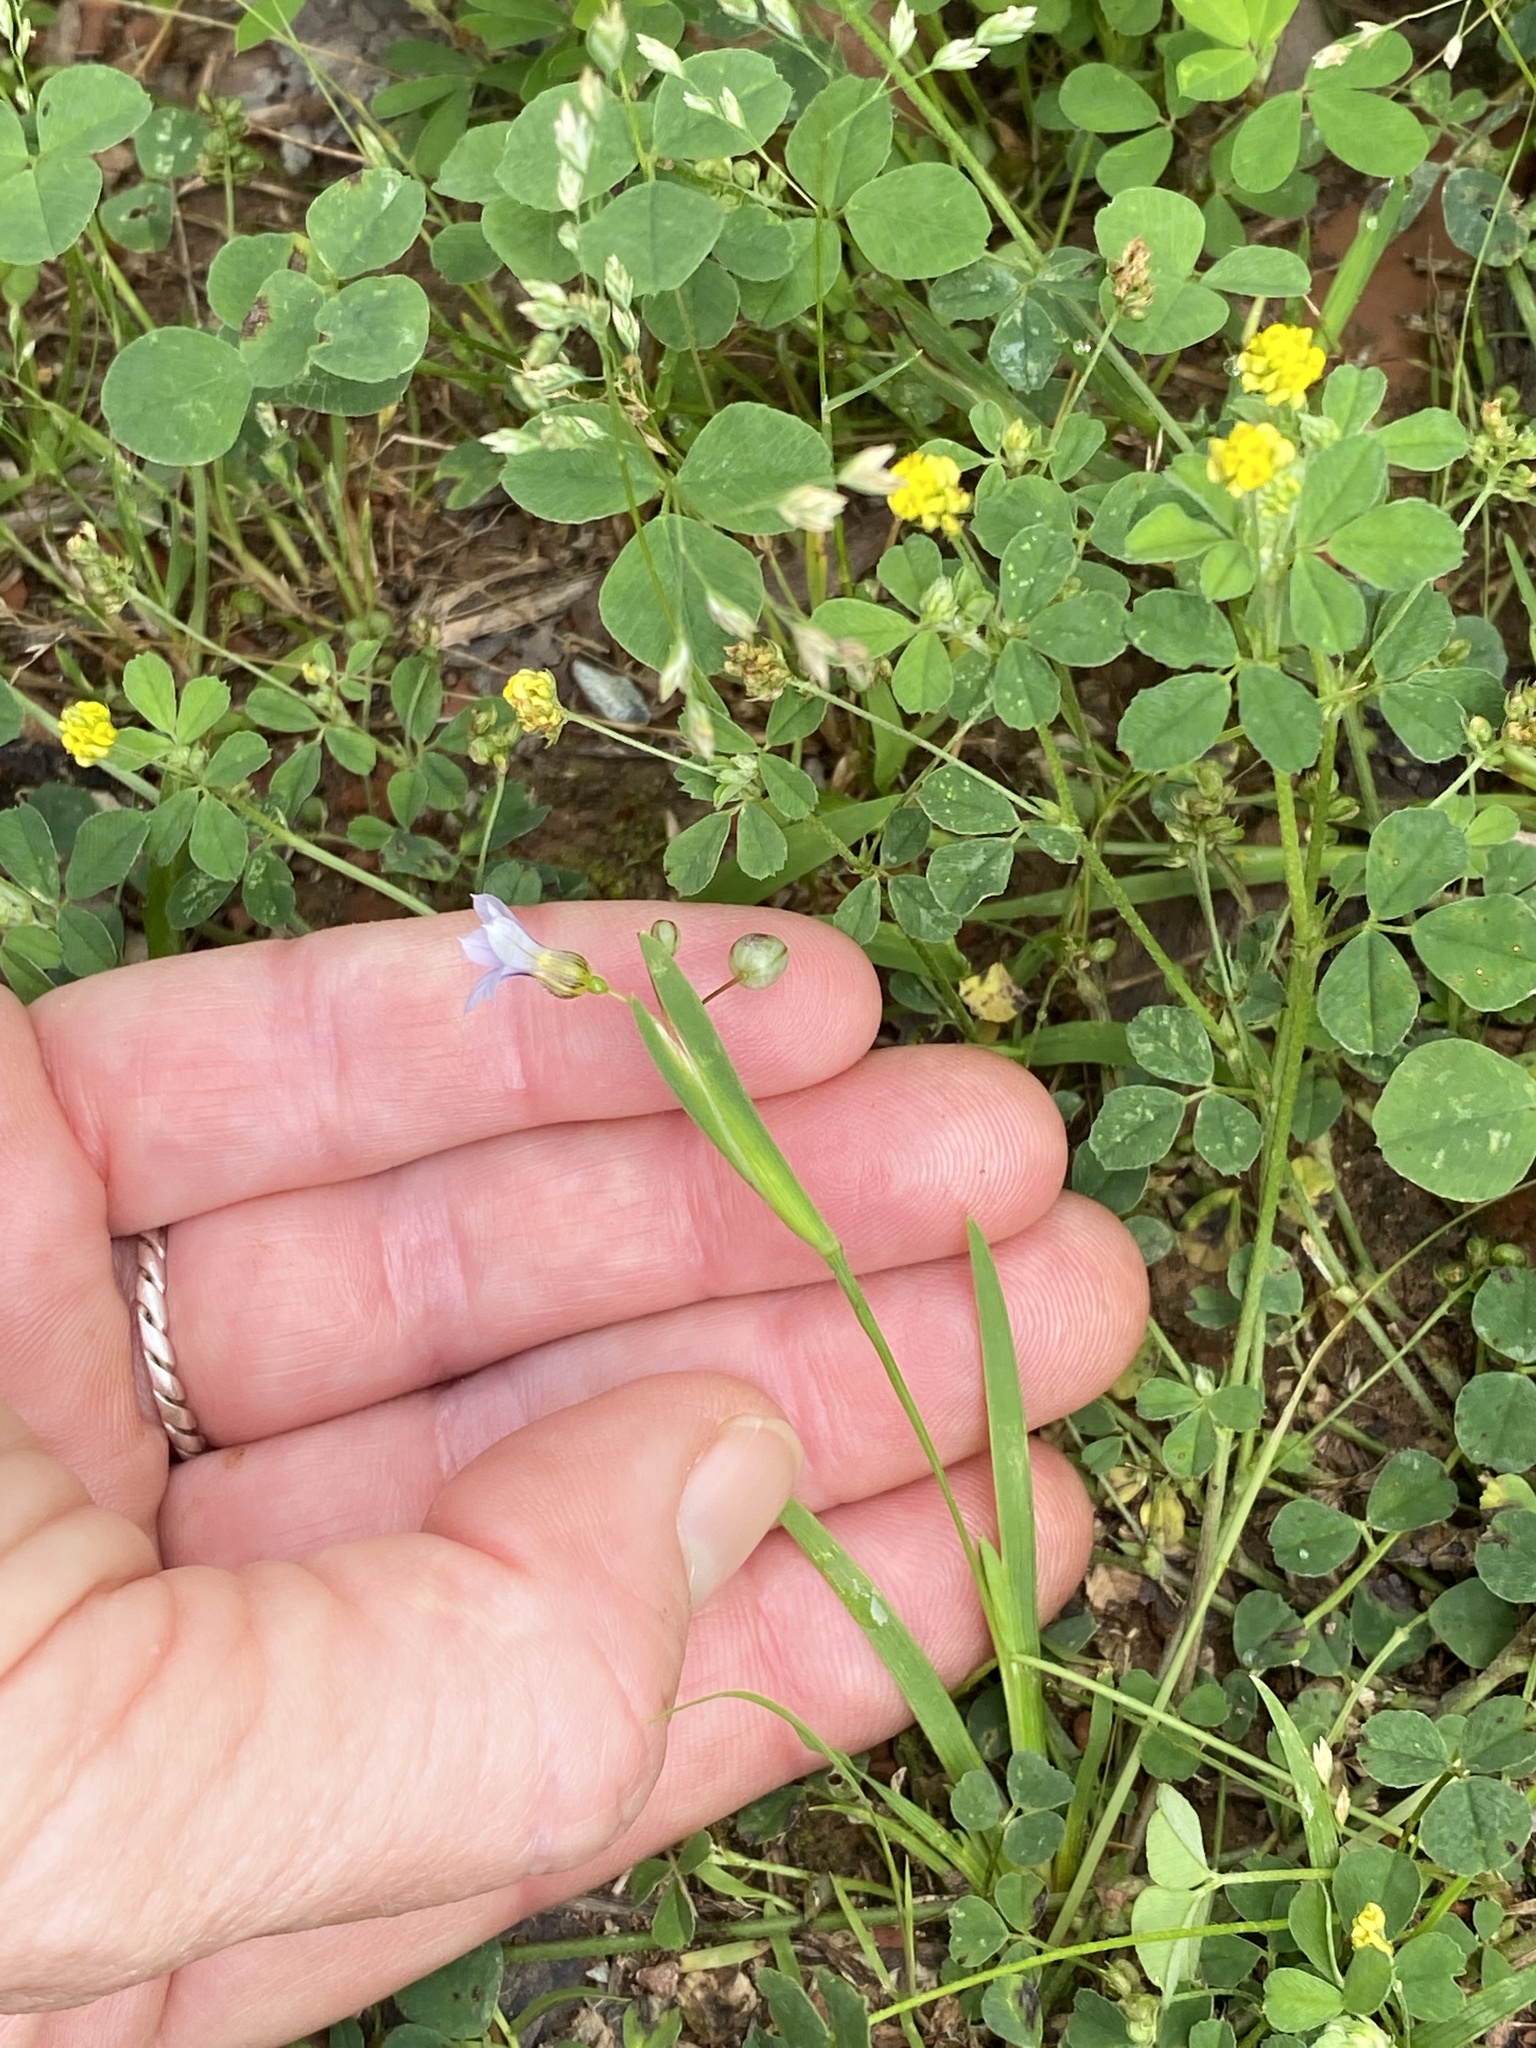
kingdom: Plantae
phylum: Tracheophyta
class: Liliopsida
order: Asparagales
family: Iridaceae
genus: Sisyrinchium
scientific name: Sisyrinchium micranthum
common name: Bermuda pigroot
